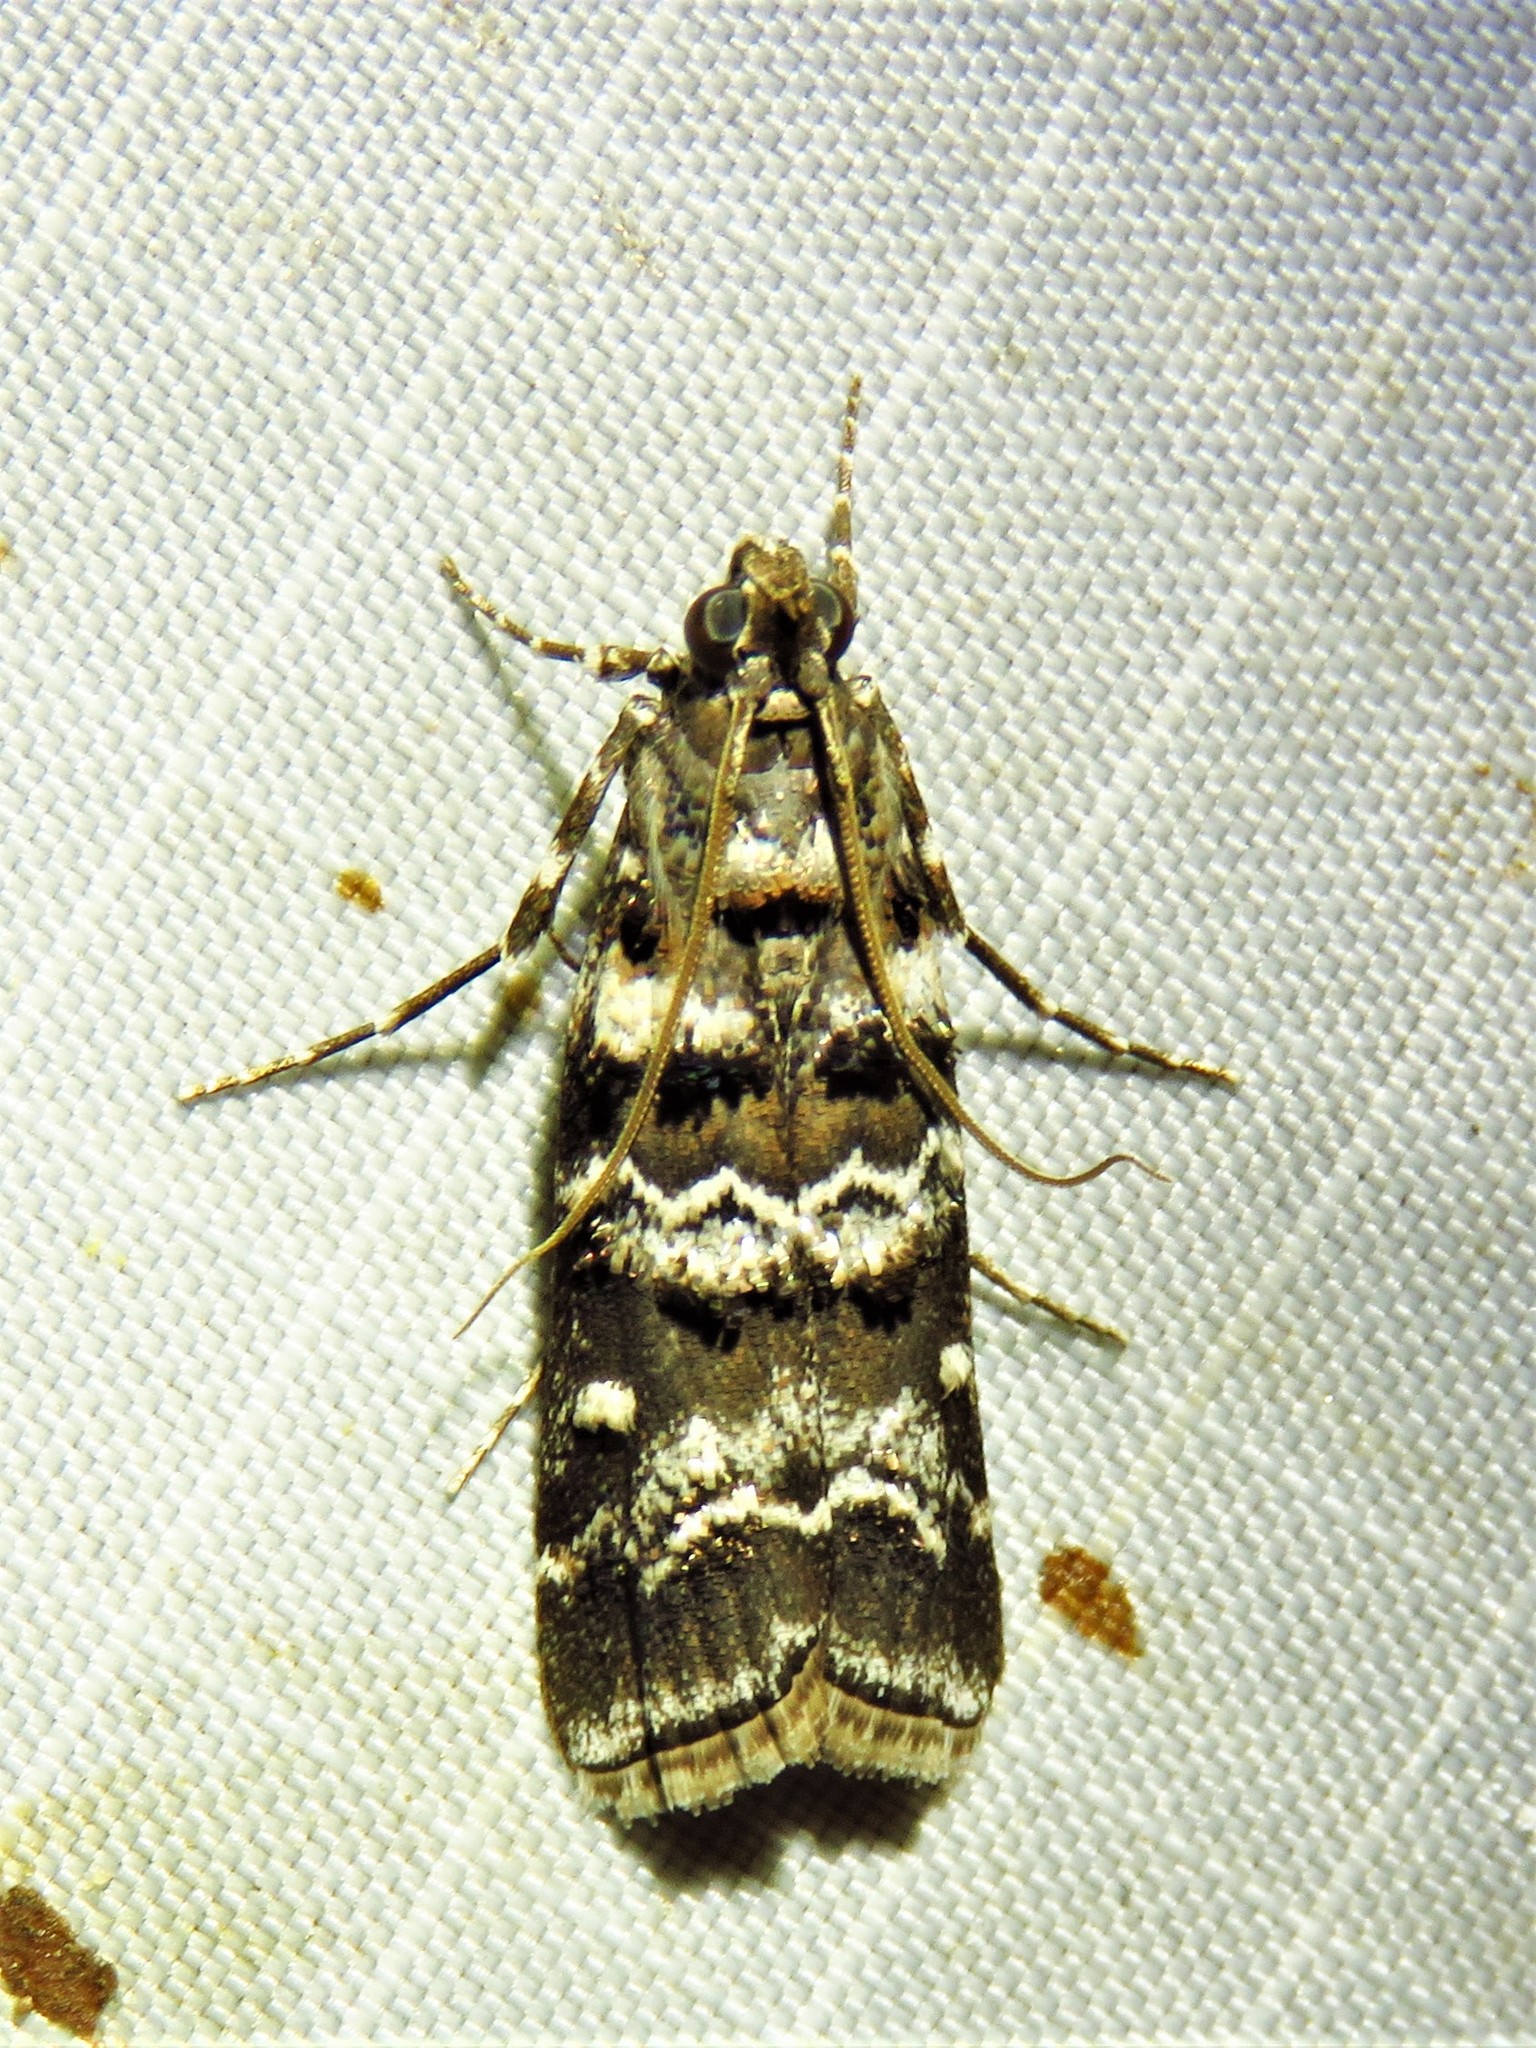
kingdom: Animalia
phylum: Arthropoda
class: Insecta
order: Lepidoptera
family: Pyralidae
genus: Dioryctria
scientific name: Dioryctria amatella
